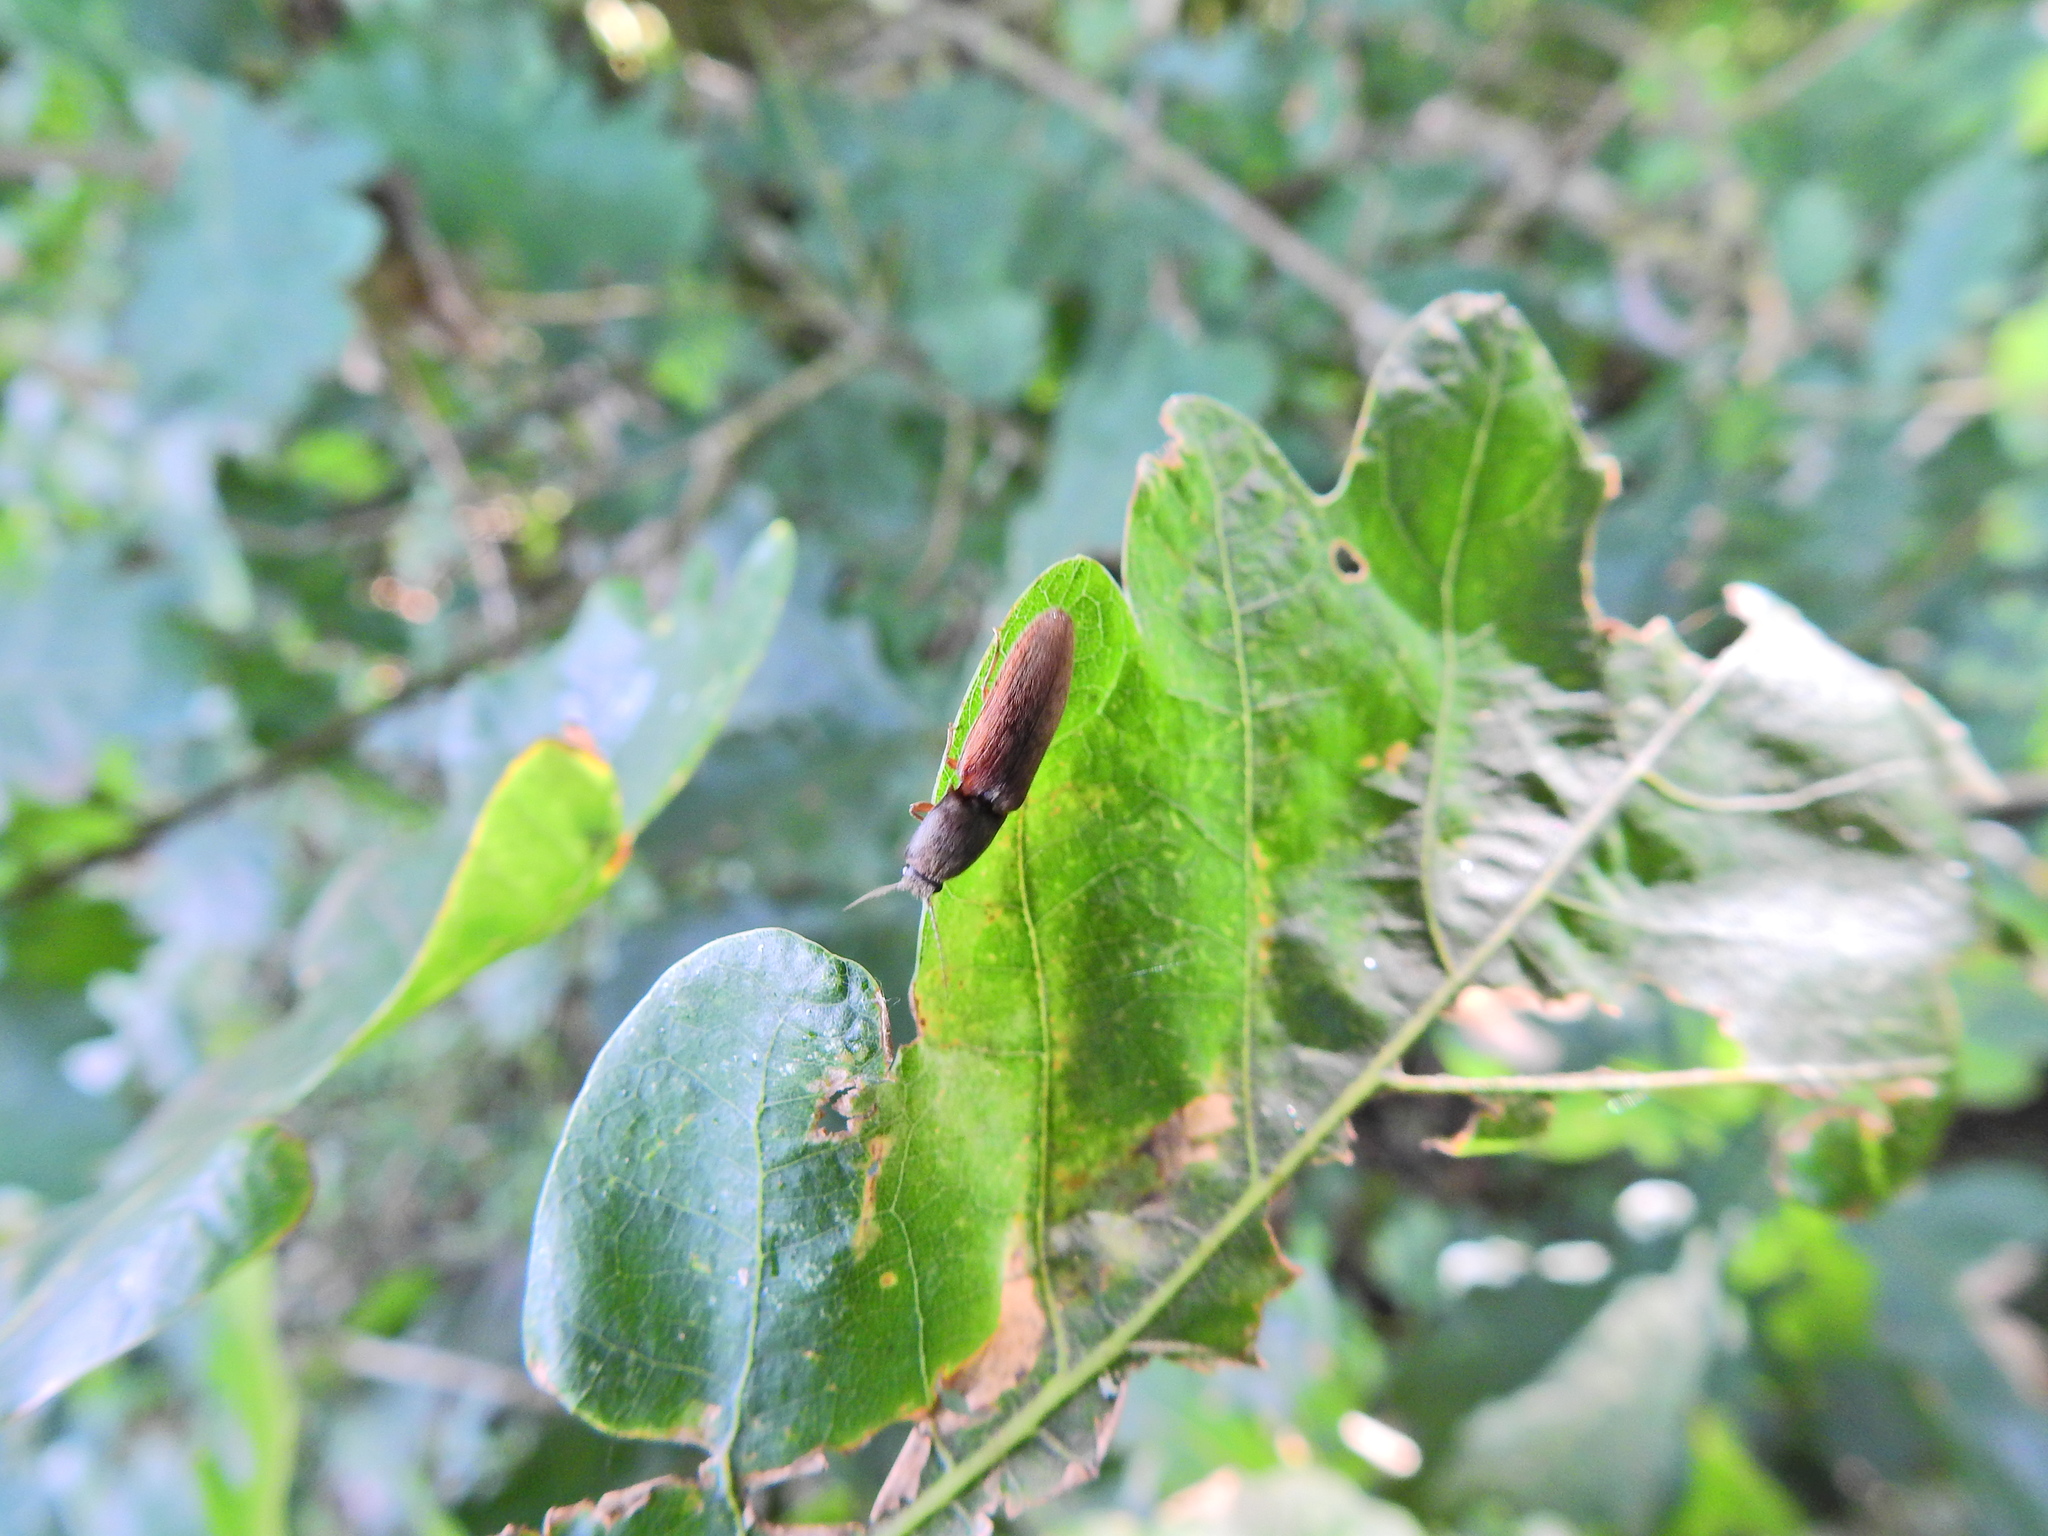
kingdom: Animalia
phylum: Arthropoda
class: Insecta
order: Coleoptera
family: Elateridae
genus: Athous
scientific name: Athous haemorrhoidalis
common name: Red-brown click beetle
